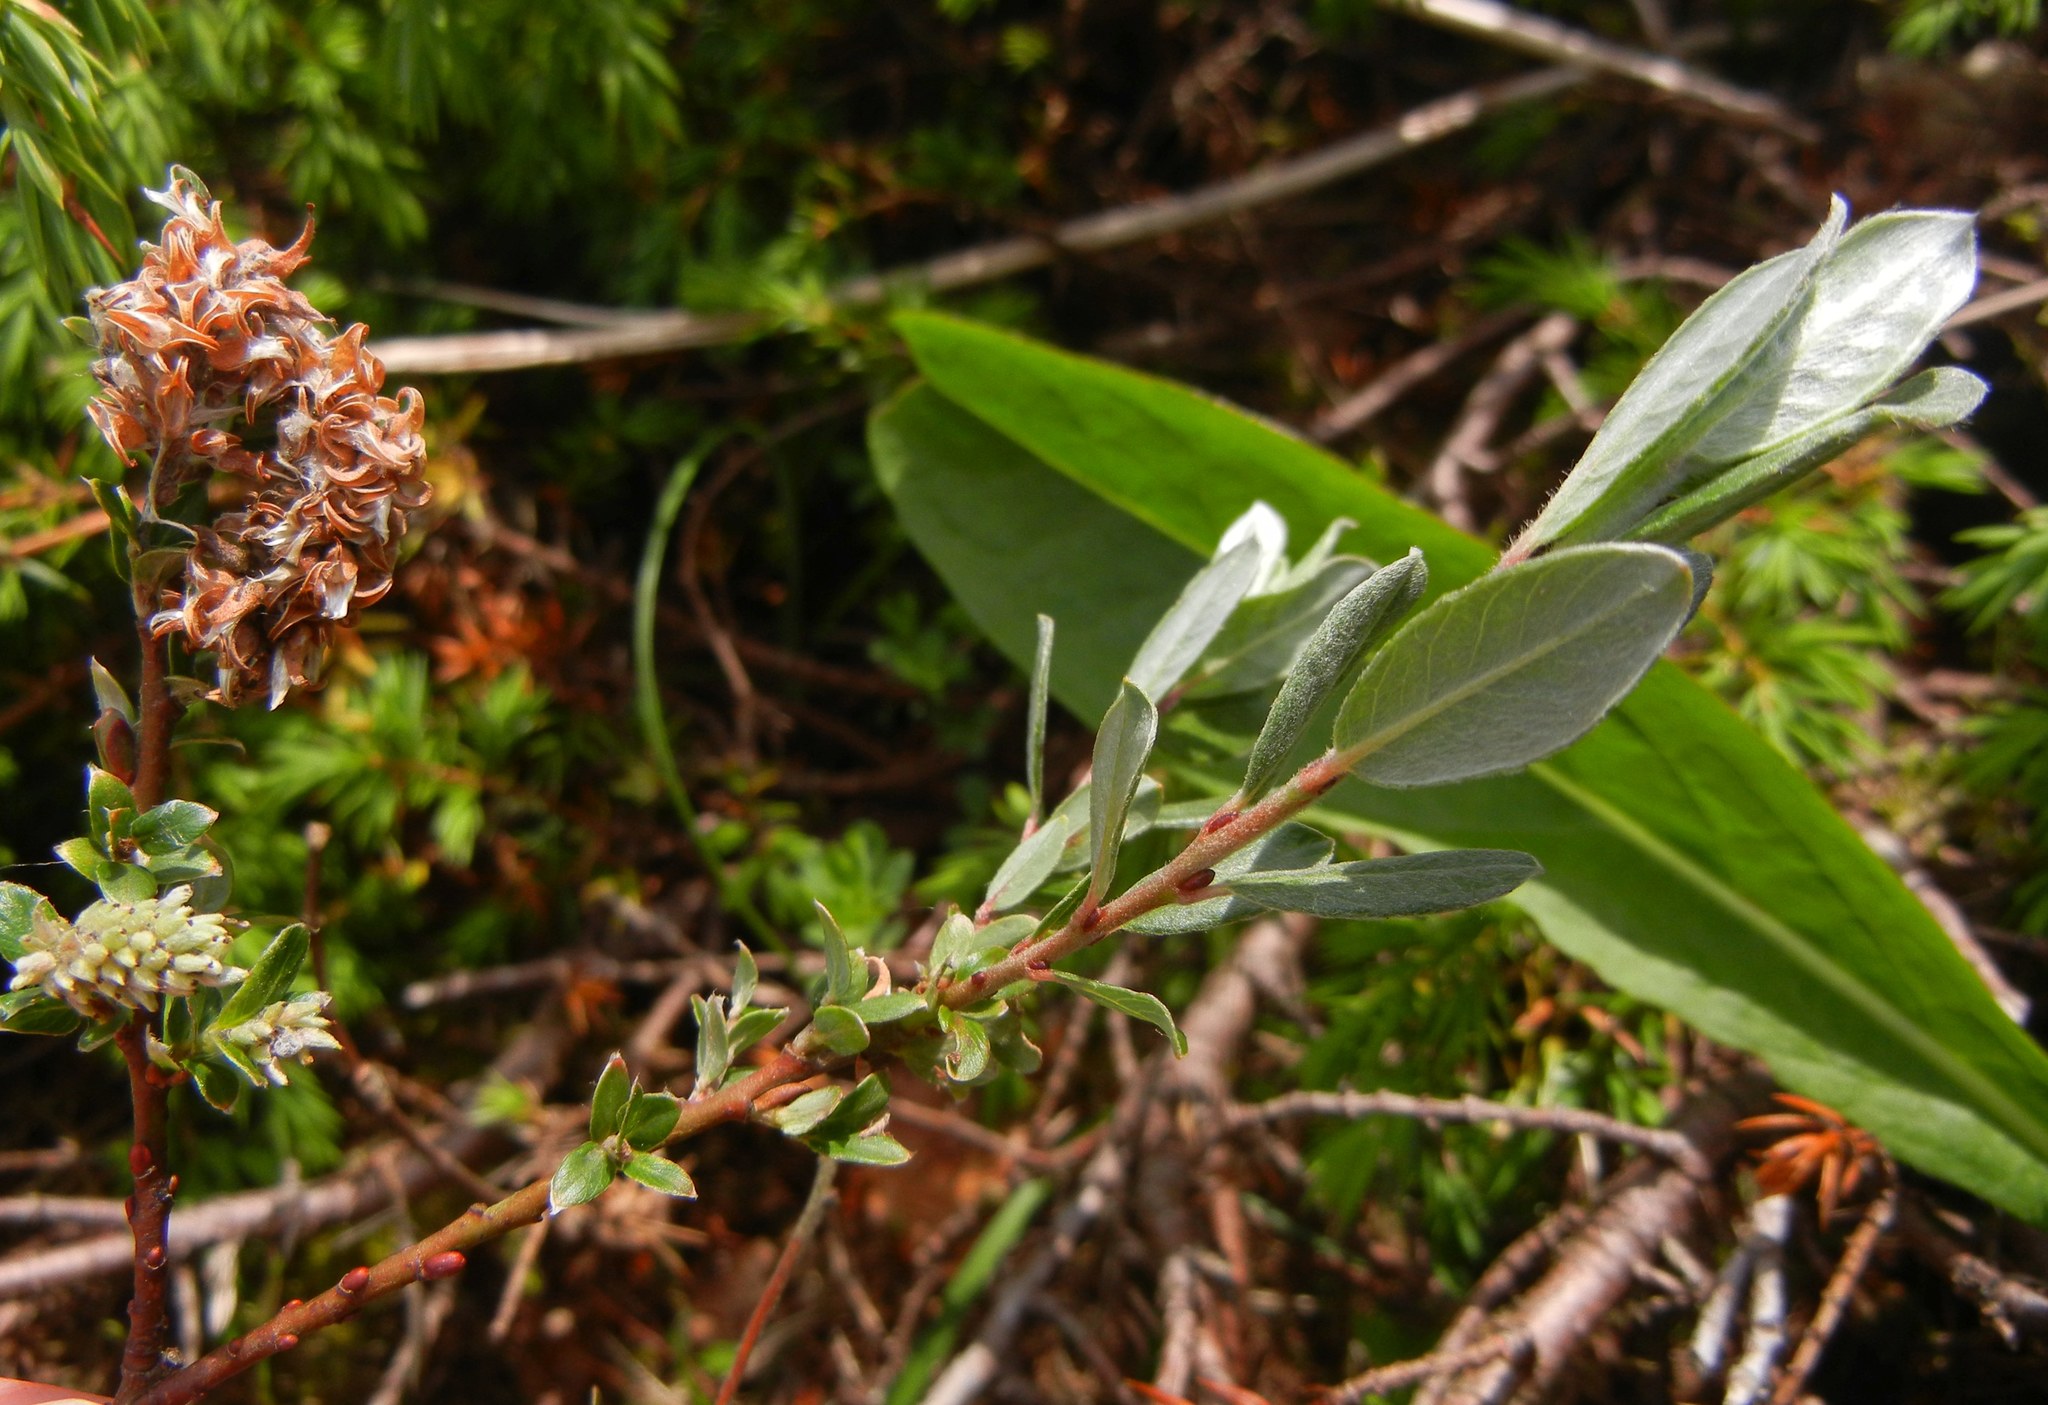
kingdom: Plantae
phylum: Tracheophyta
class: Magnoliopsida
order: Malpighiales
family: Salicaceae
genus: Salix
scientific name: Salix repens
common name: Creeping willow
